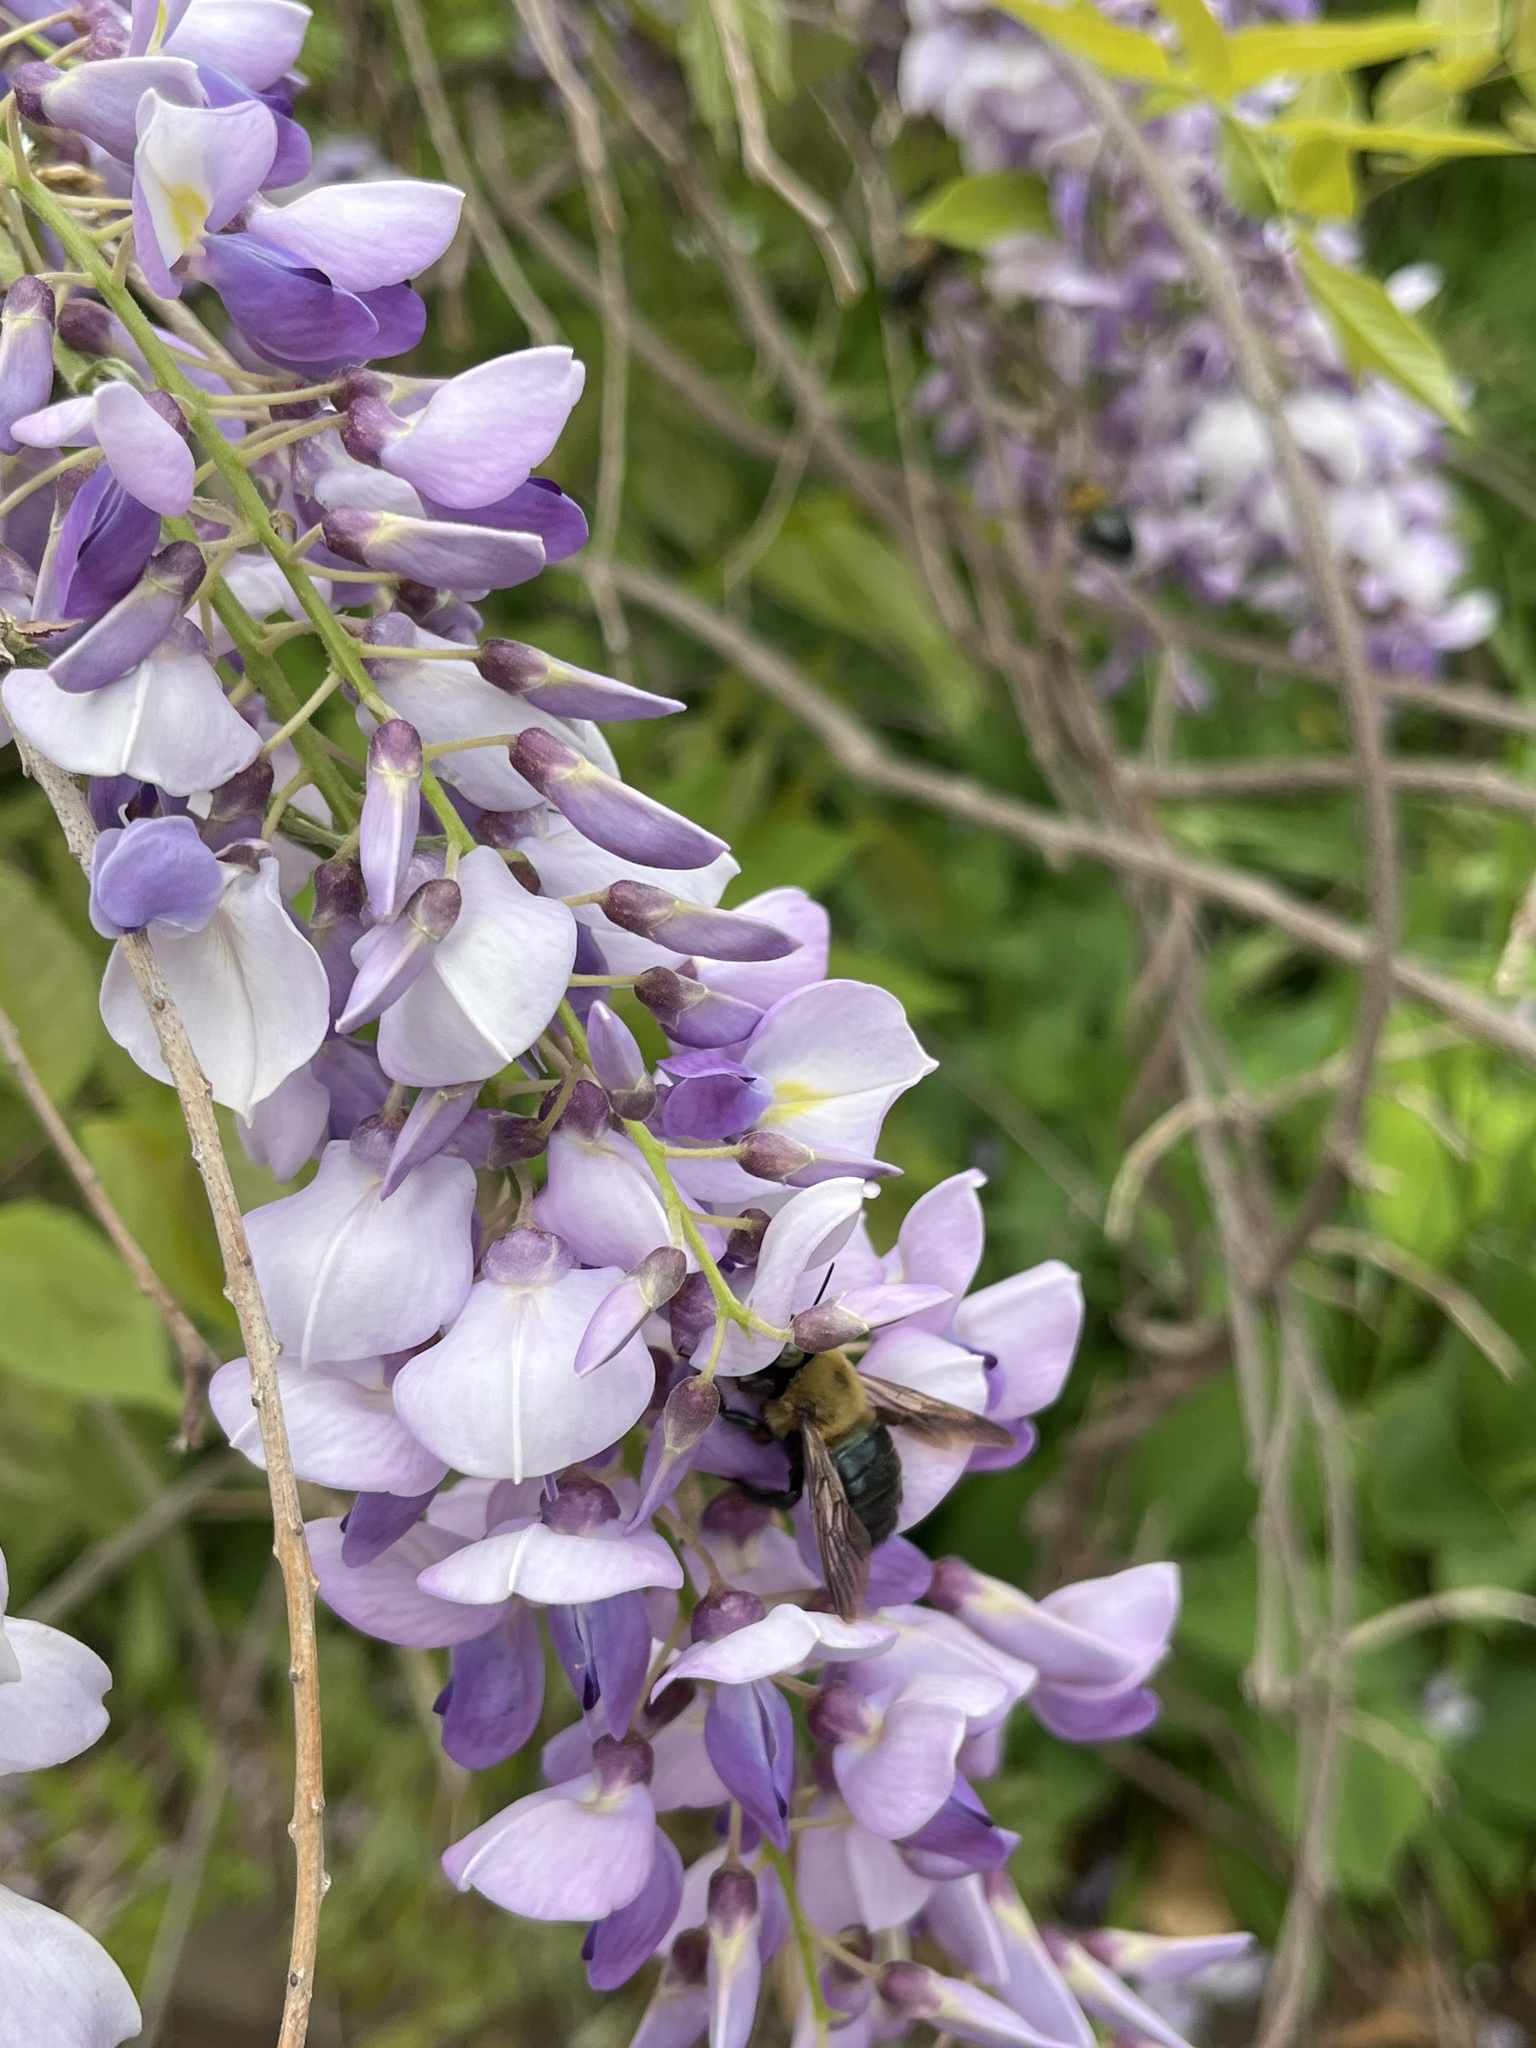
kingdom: Animalia
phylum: Arthropoda
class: Insecta
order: Hymenoptera
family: Apidae
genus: Xylocopa
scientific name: Xylocopa virginica
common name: Carpenter bee
